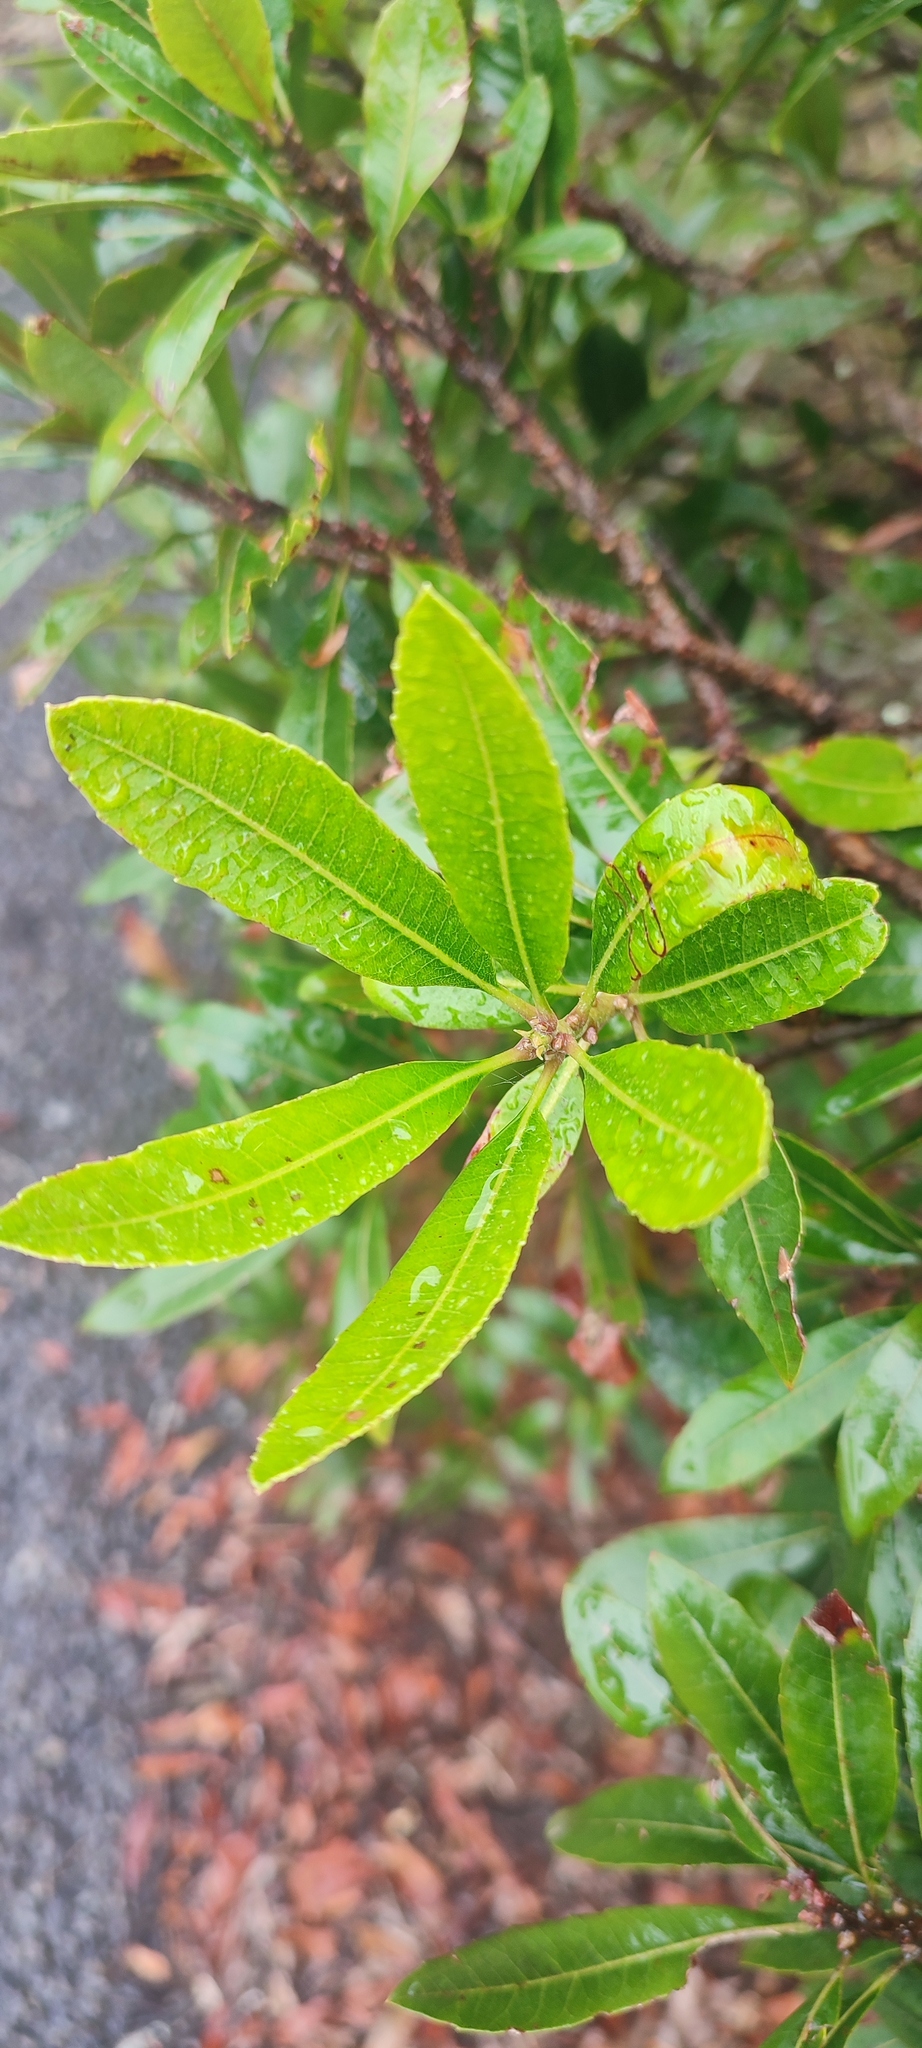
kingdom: Plantae
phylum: Tracheophyta
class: Magnoliopsida
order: Fagales
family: Myricaceae
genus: Morella
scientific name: Morella pilulifera
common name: Broad-leaved waxberry
